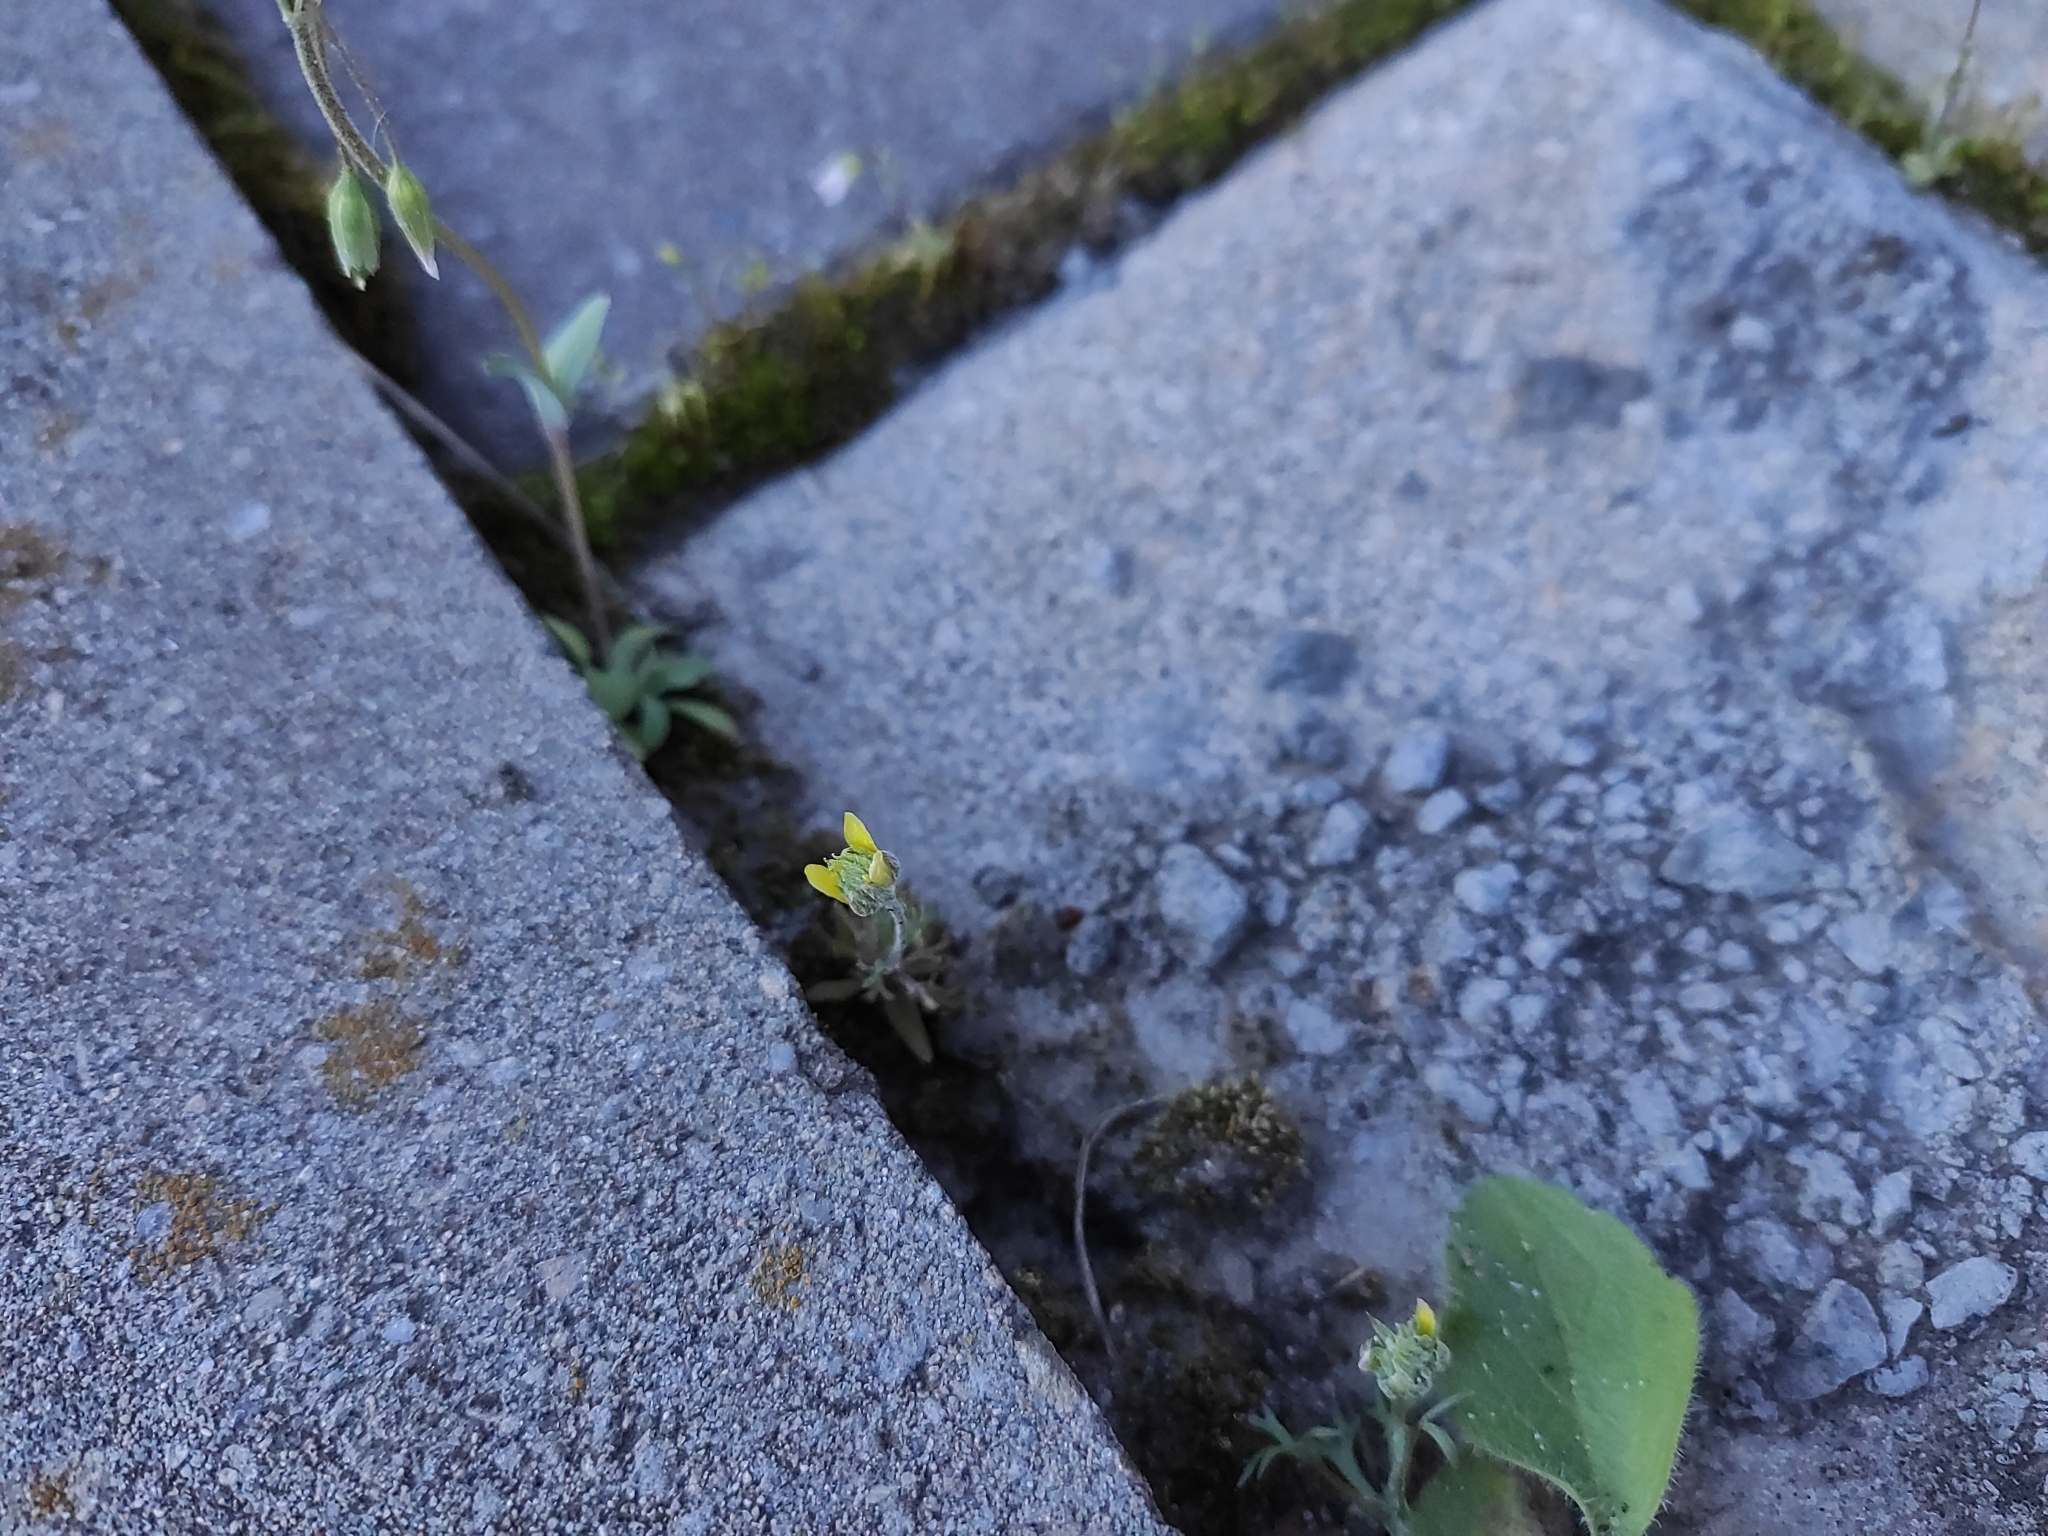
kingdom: Plantae
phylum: Tracheophyta
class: Magnoliopsida
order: Ranunculales
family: Ranunculaceae
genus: Ceratocephala
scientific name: Ceratocephala orthoceras
